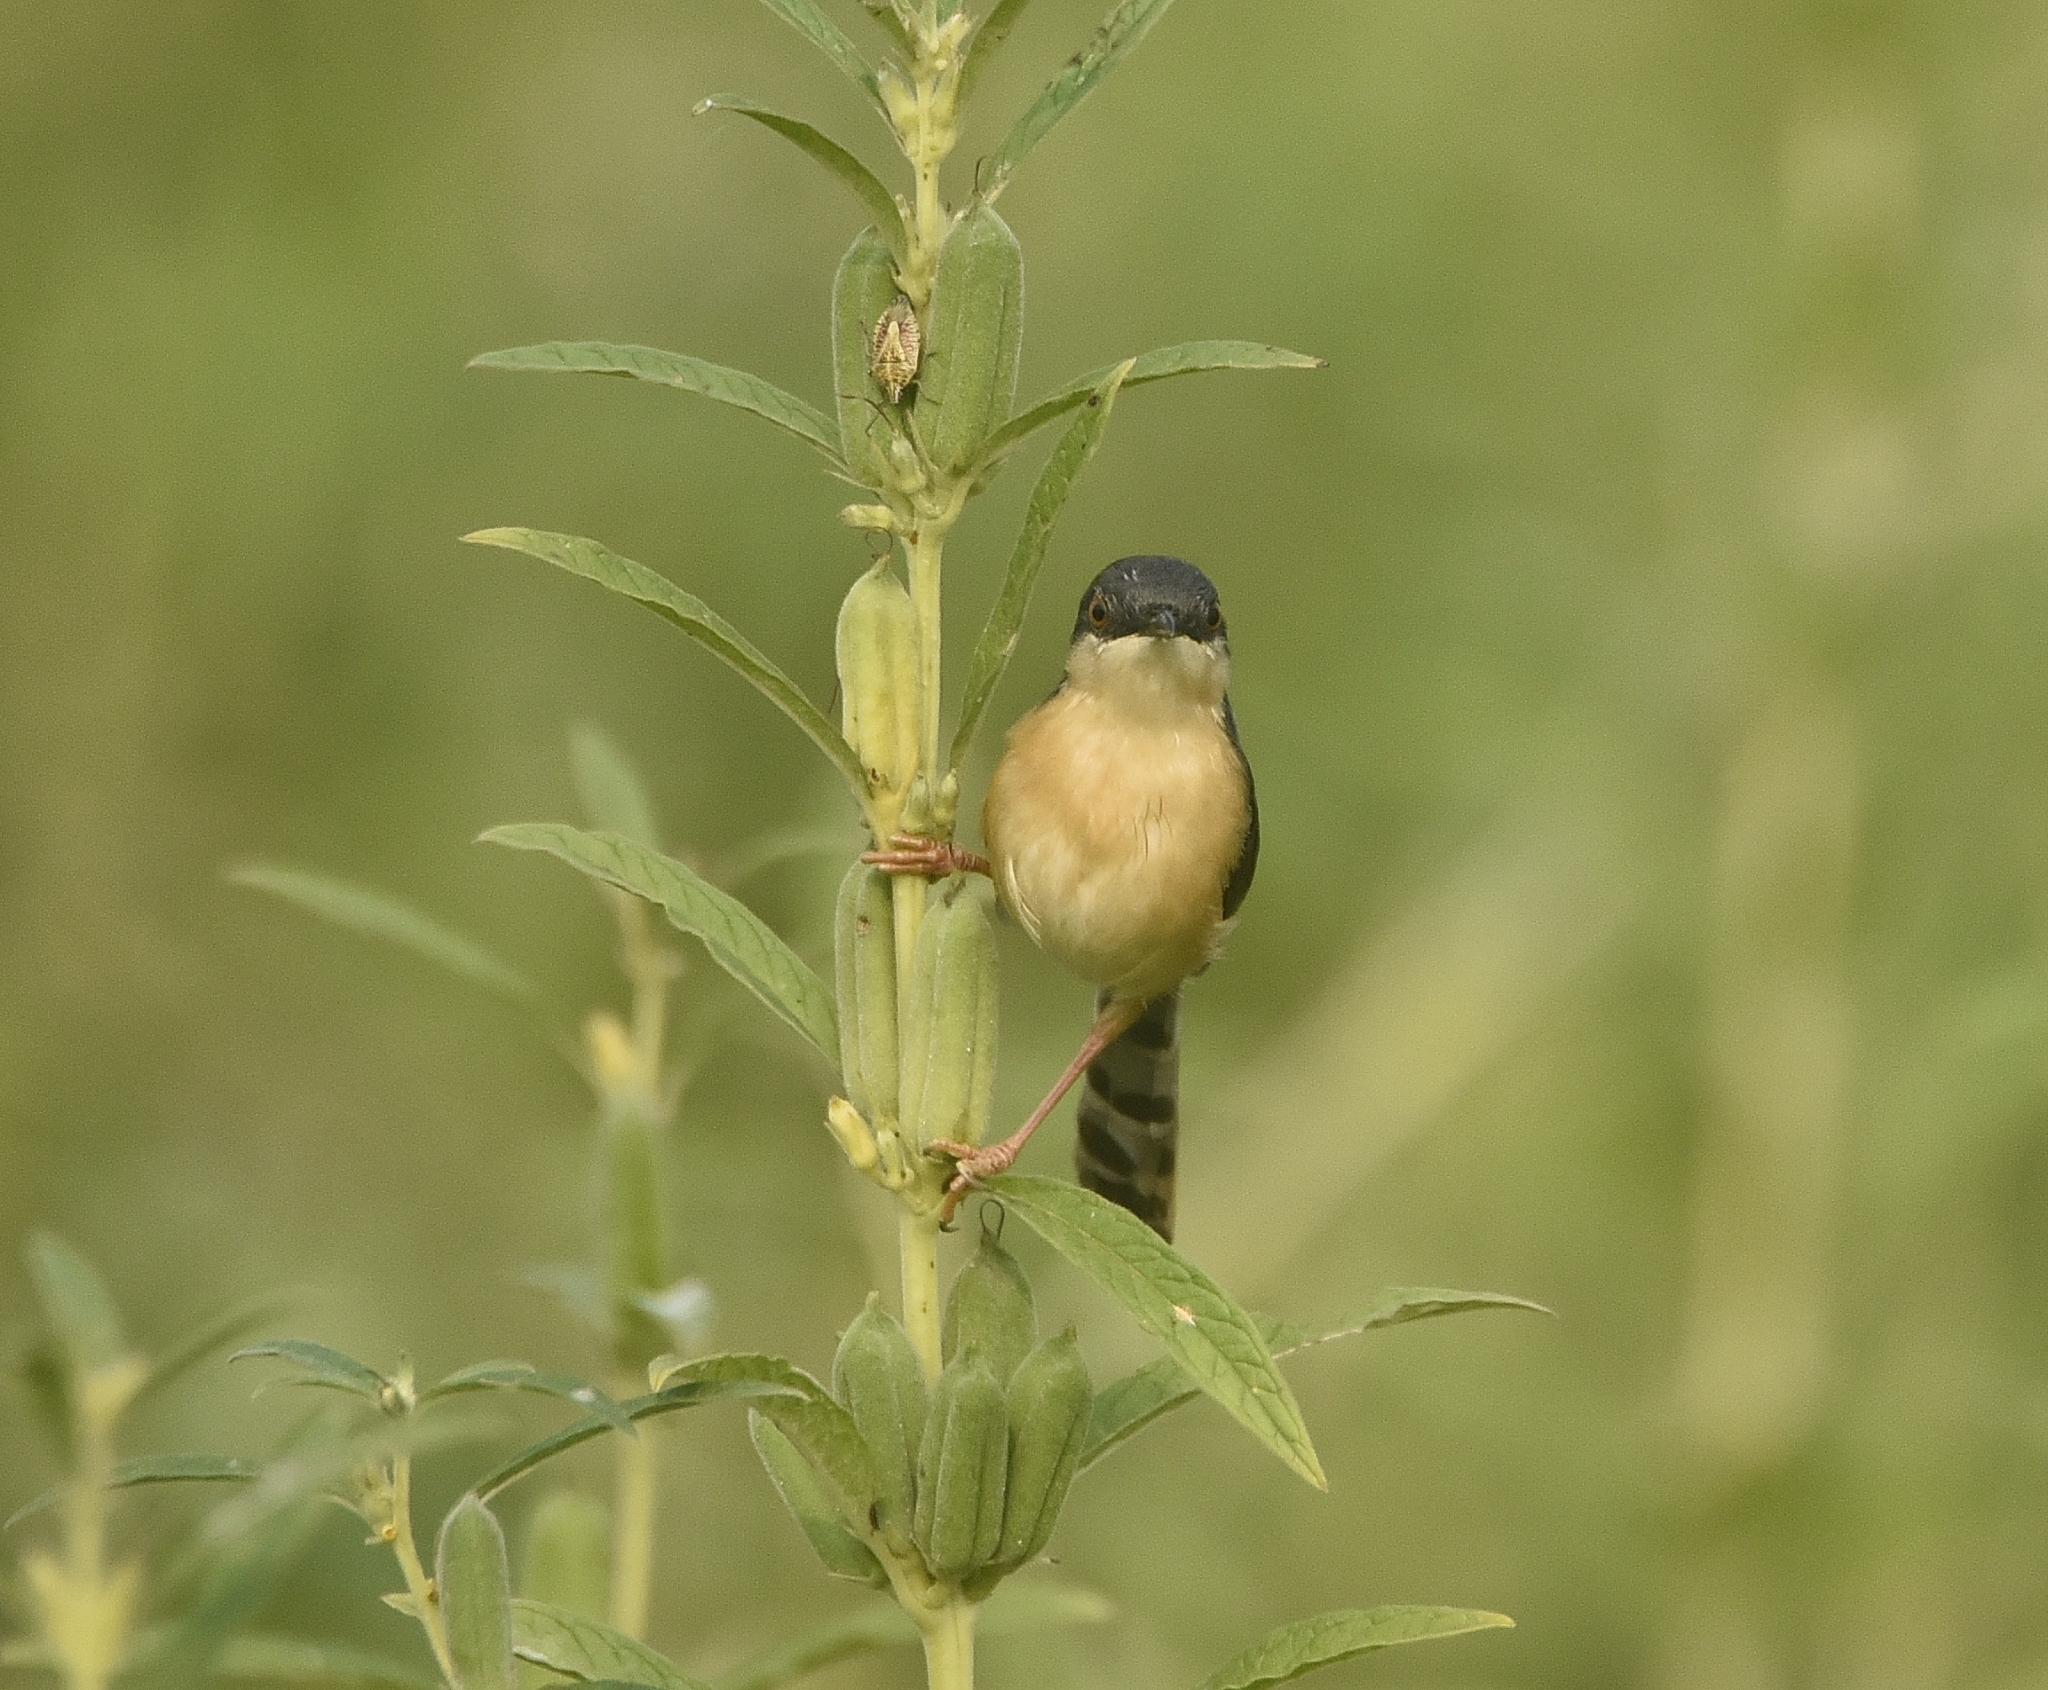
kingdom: Animalia
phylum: Chordata
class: Aves
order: Passeriformes
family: Cisticolidae
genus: Prinia
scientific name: Prinia socialis
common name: Ashy prinia
